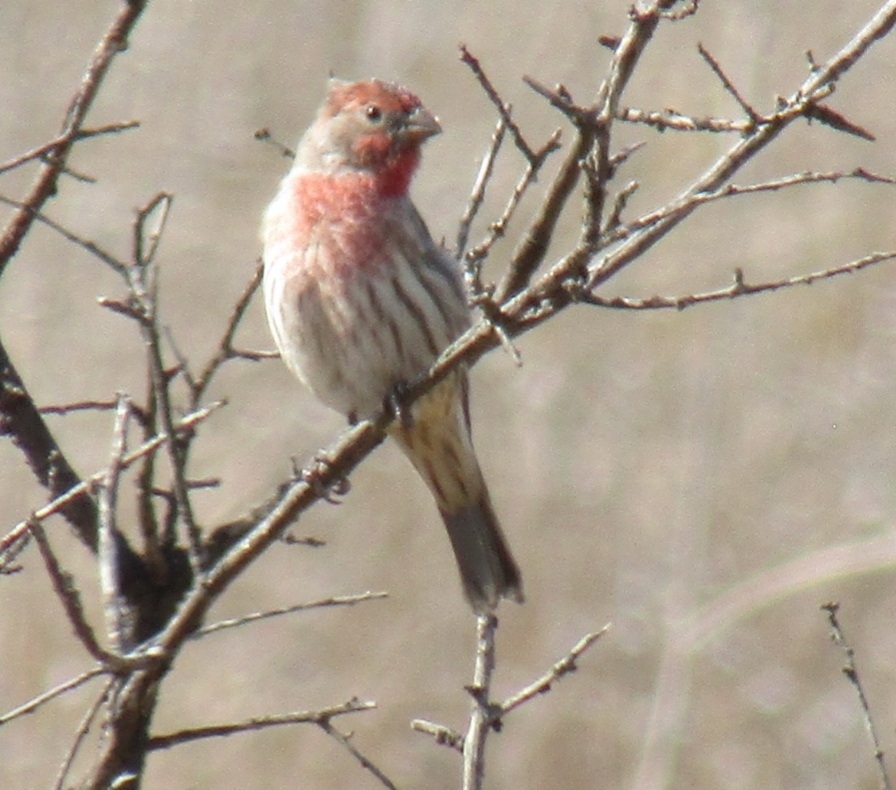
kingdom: Animalia
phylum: Chordata
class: Aves
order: Passeriformes
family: Fringillidae
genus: Haemorhous
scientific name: Haemorhous mexicanus
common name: House finch
